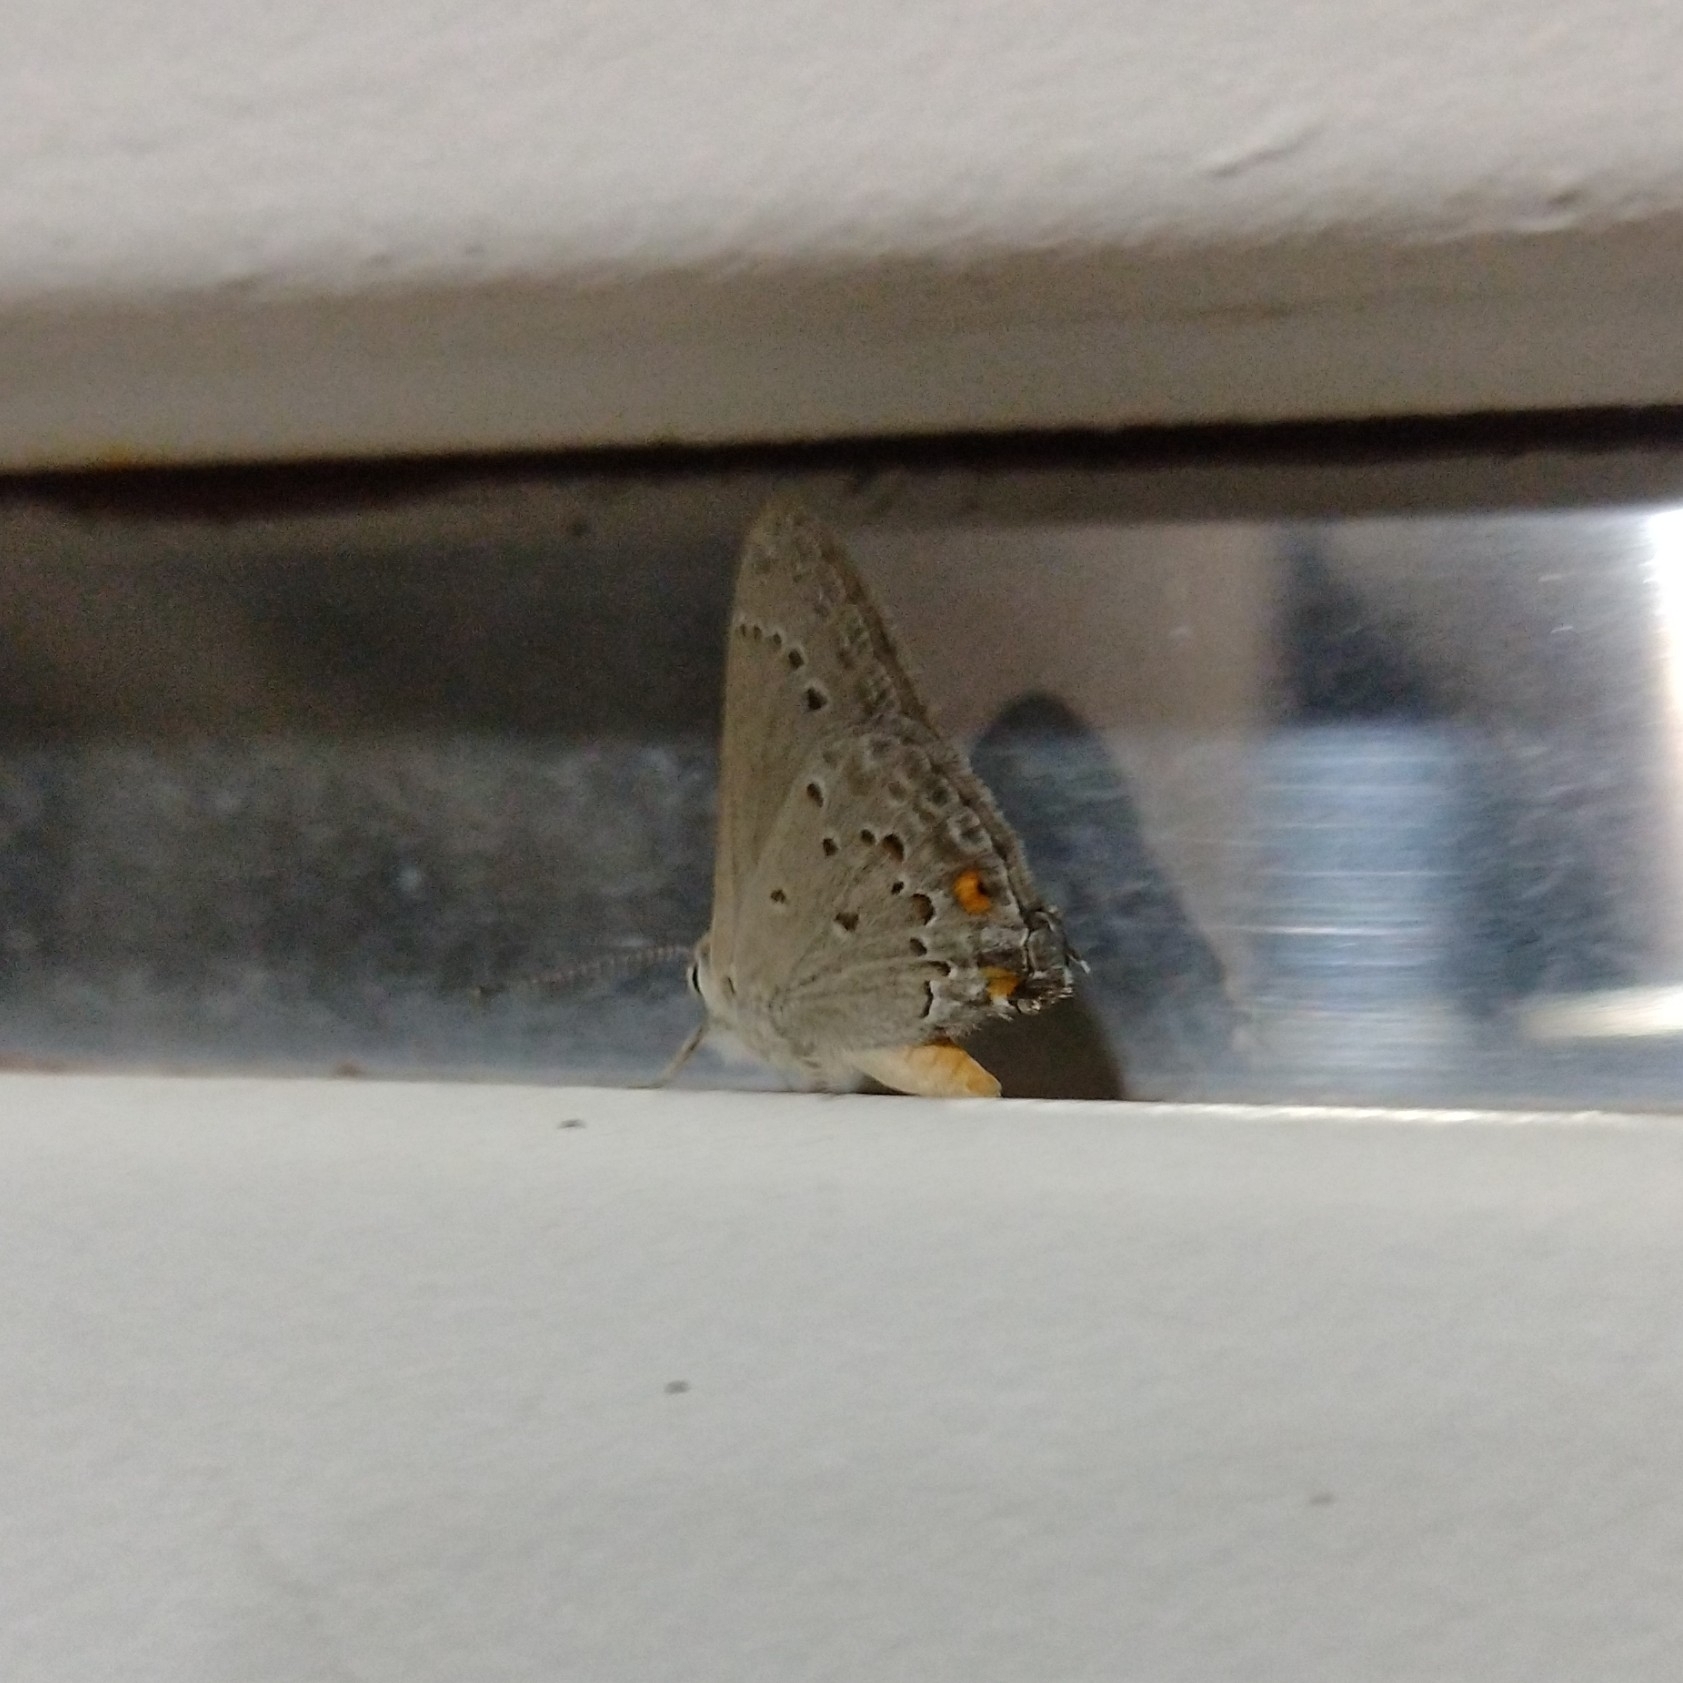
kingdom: Animalia
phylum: Arthropoda
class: Insecta
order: Lepidoptera
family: Lycaenidae
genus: Strymon
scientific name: Strymon eurytulus
